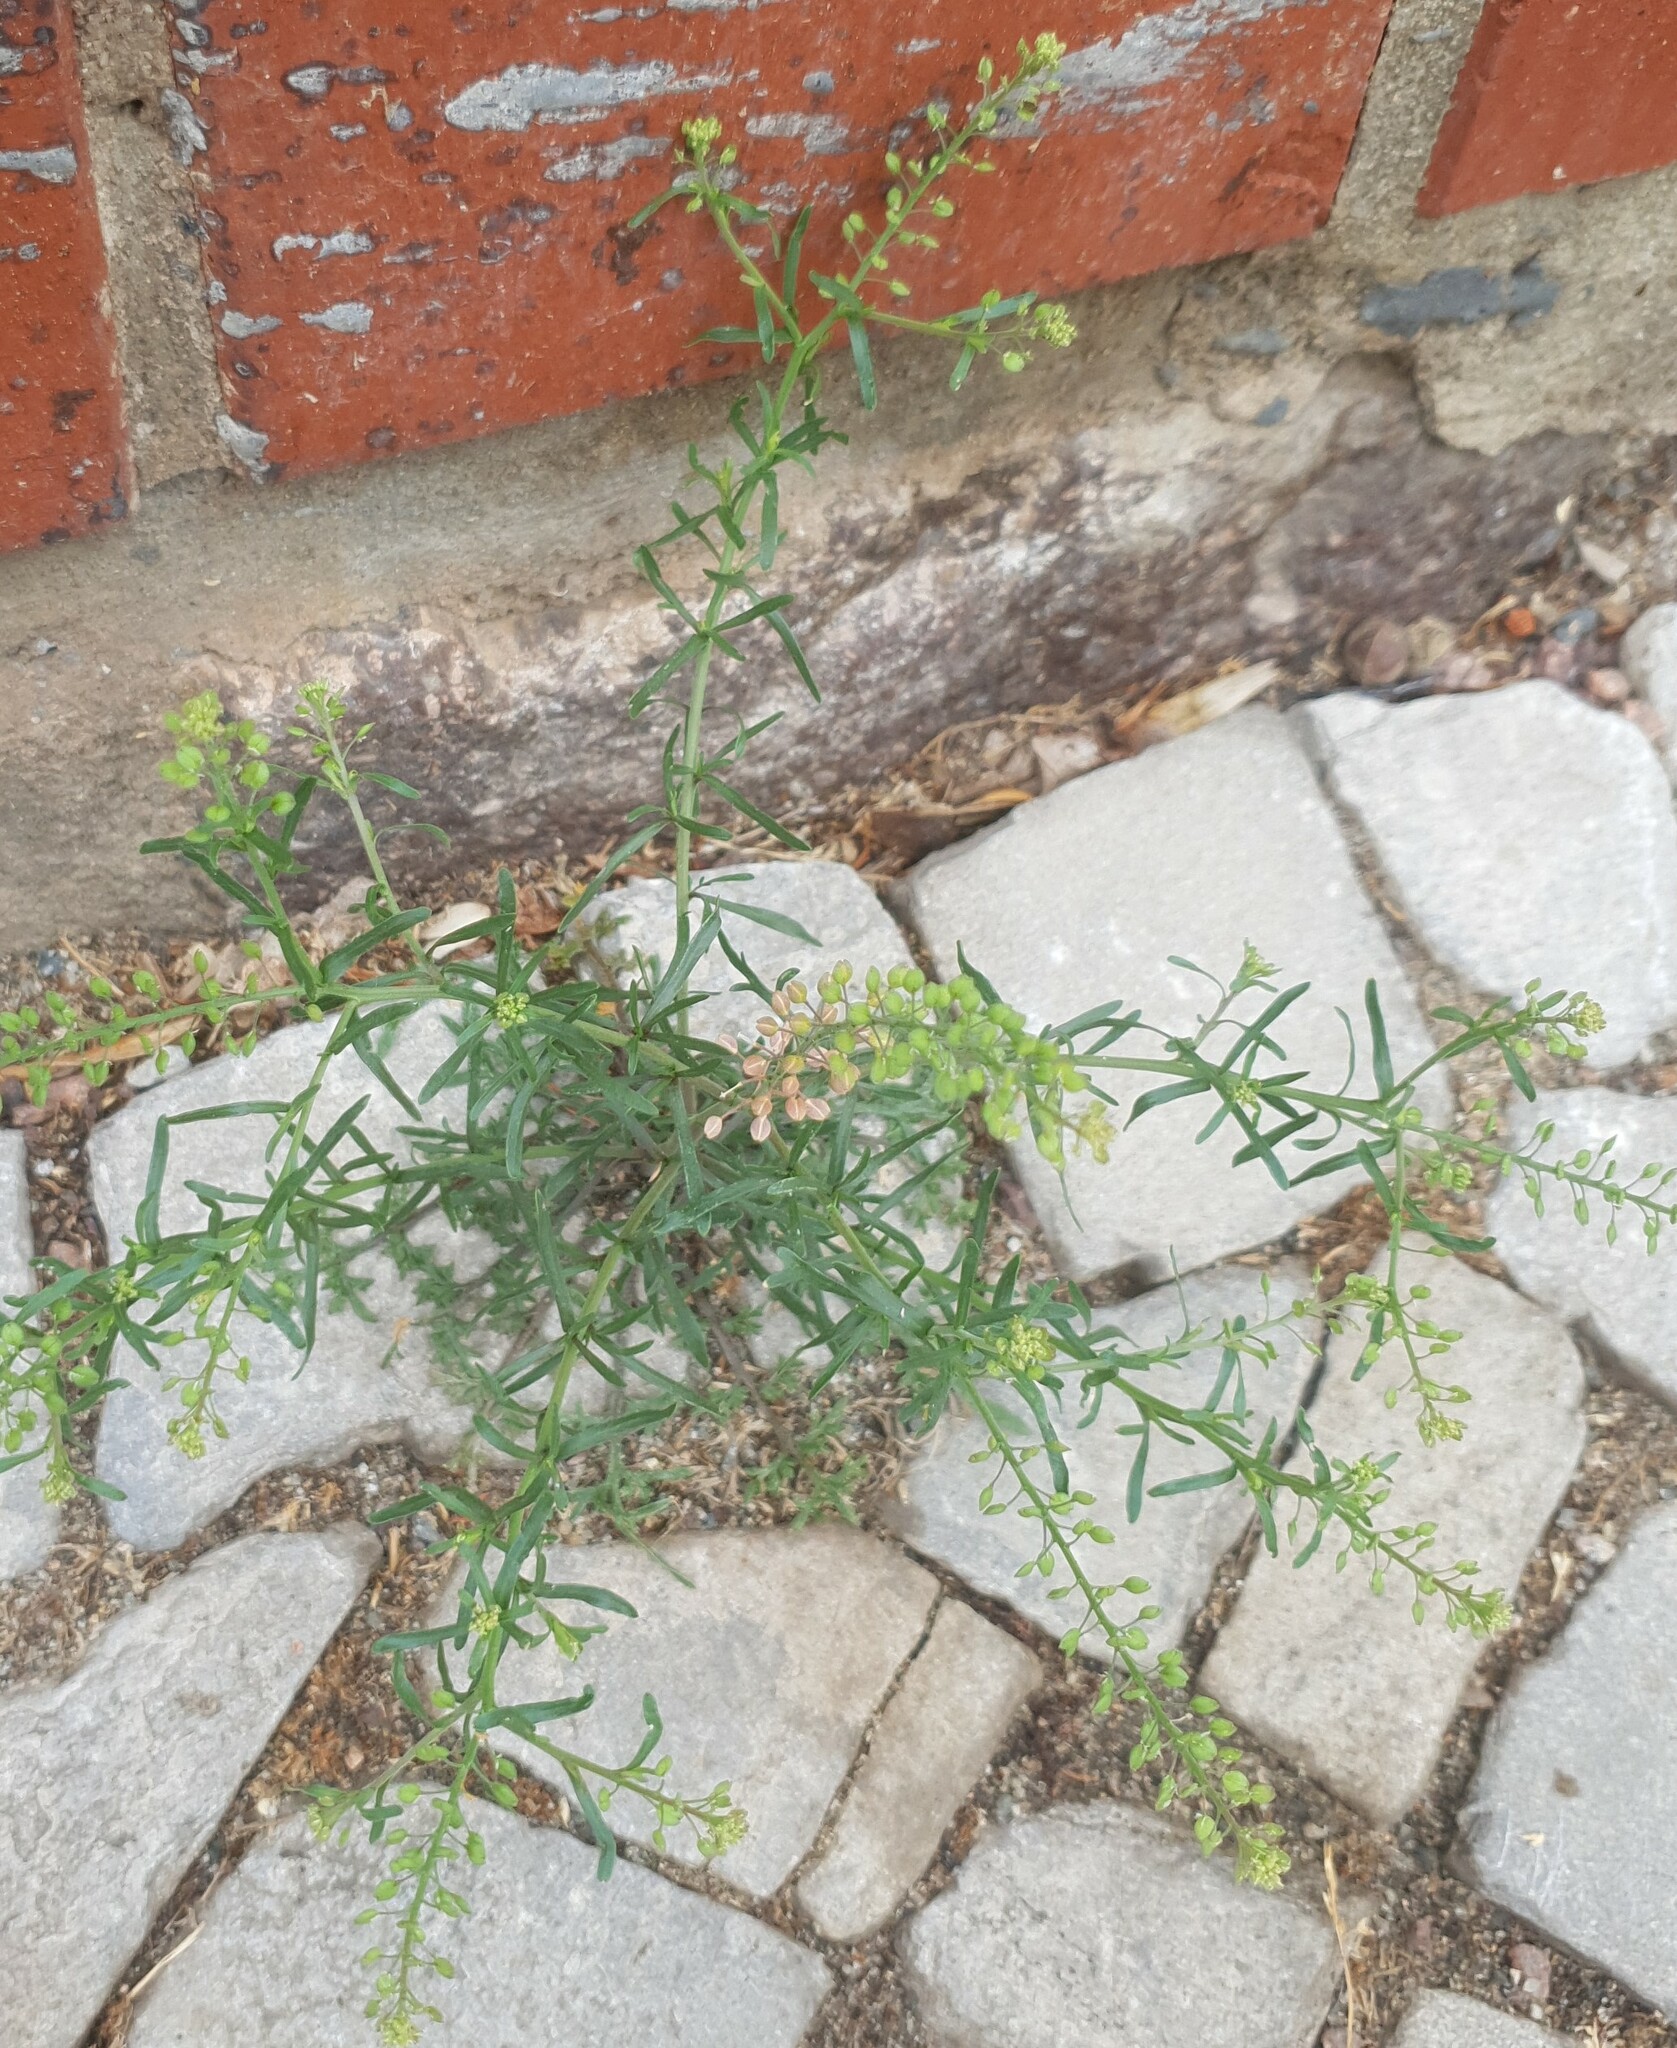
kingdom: Plantae
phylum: Tracheophyta
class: Magnoliopsida
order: Brassicales
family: Brassicaceae
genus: Lepidium
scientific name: Lepidium ruderale
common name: Narrow-leaved pepperwort
